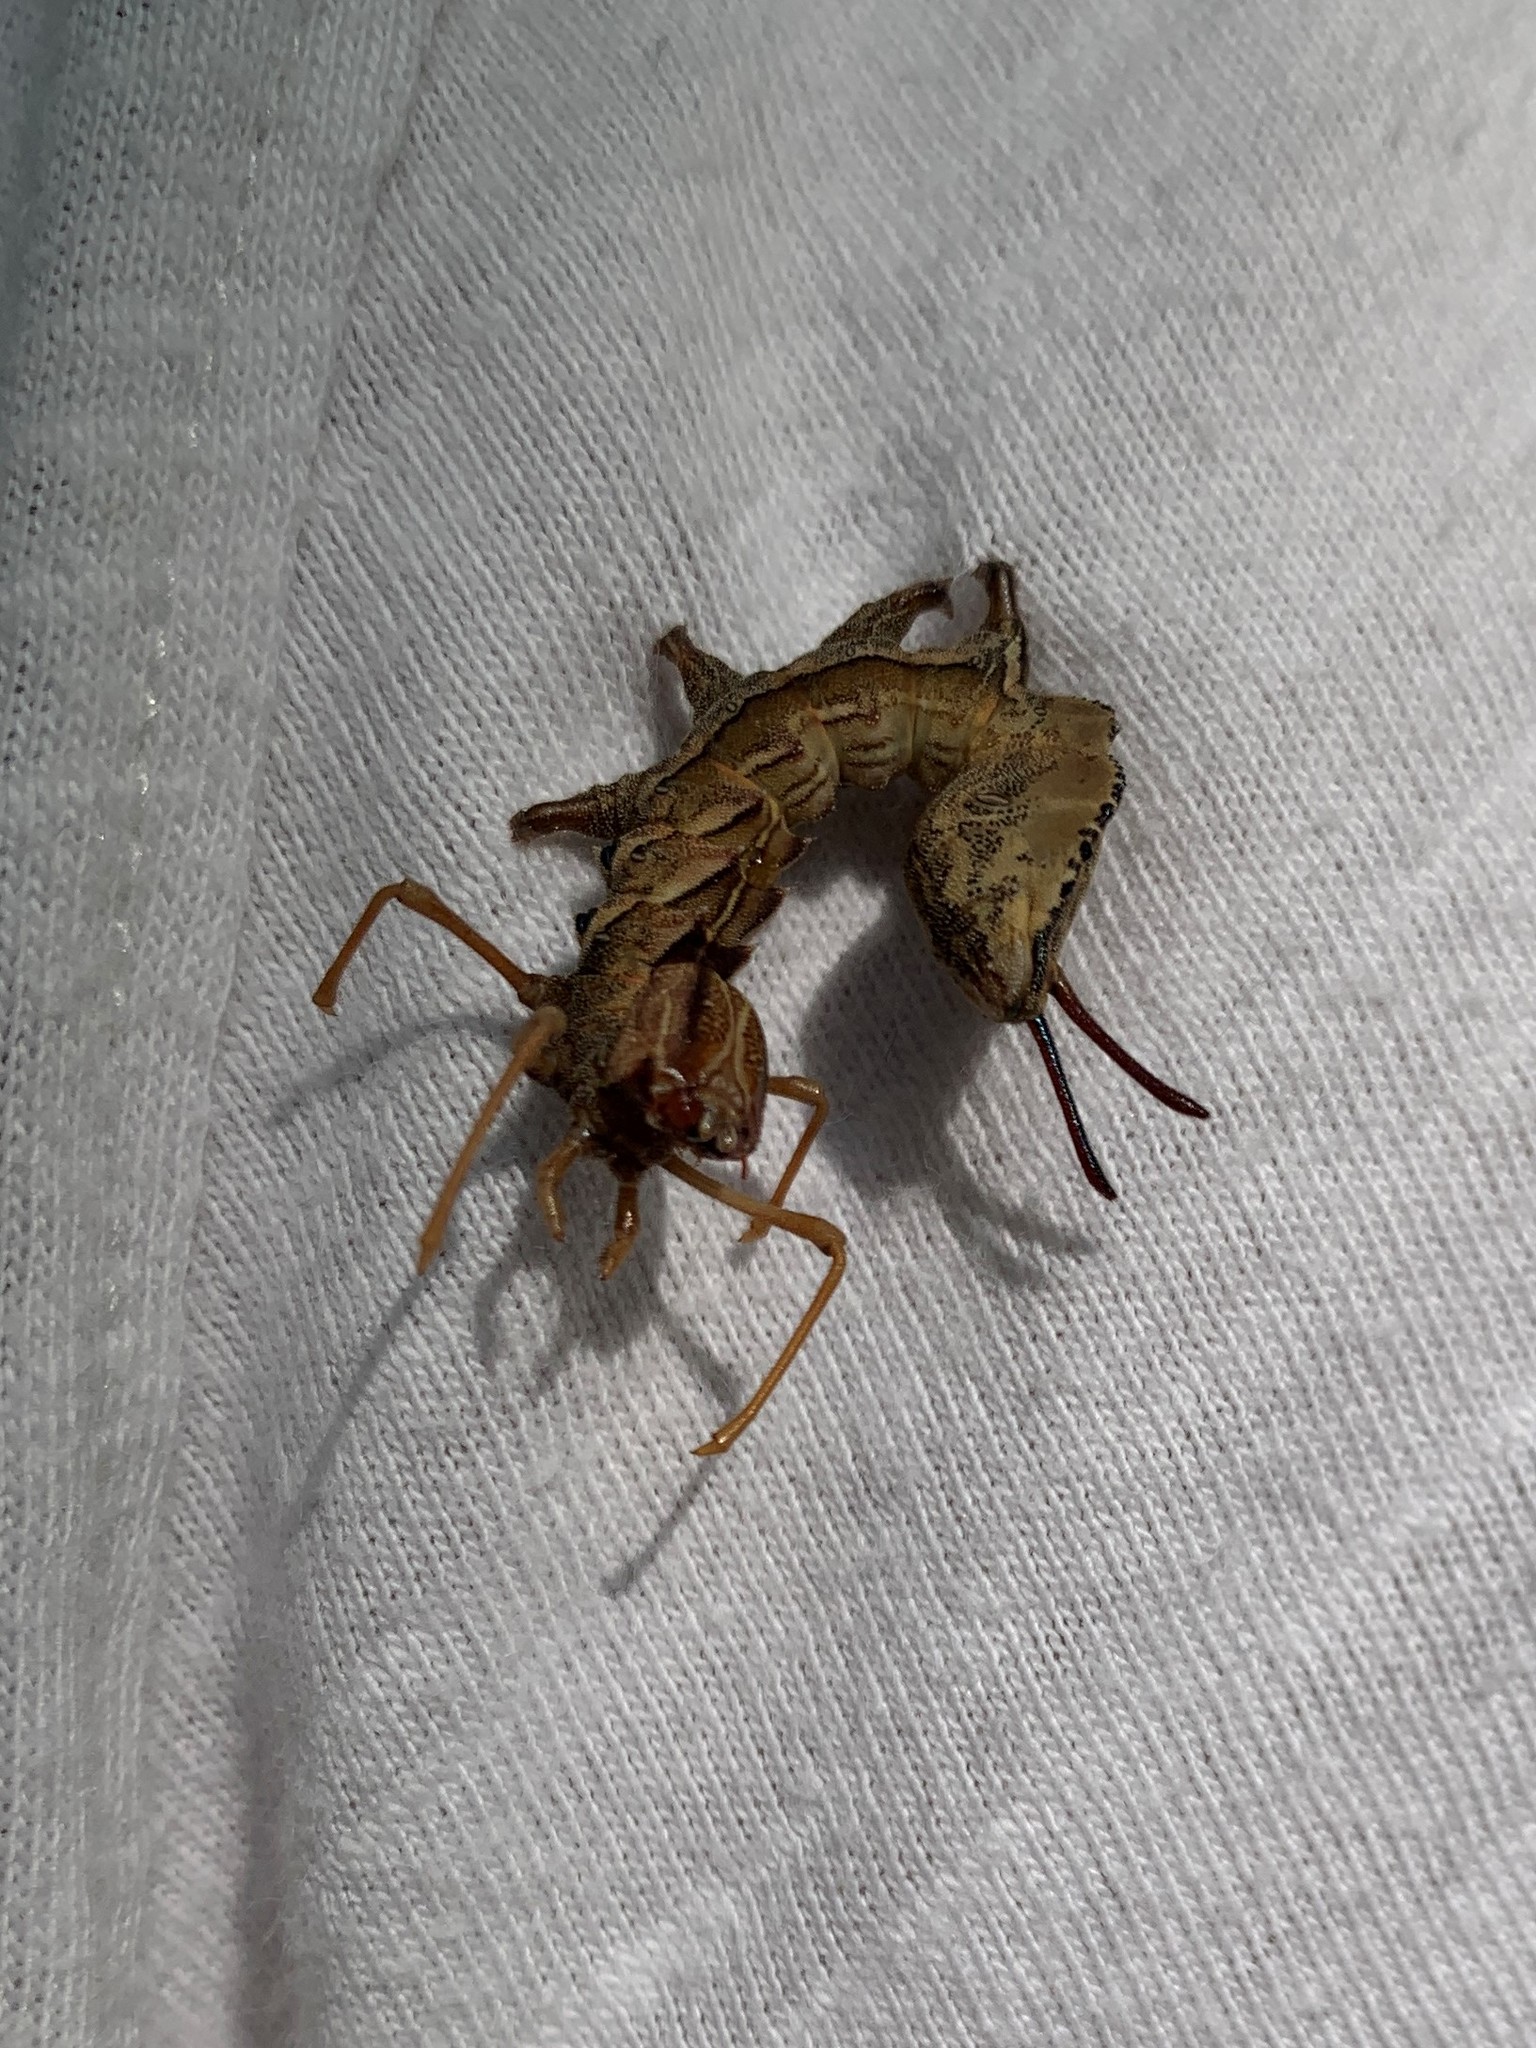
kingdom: Animalia
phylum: Arthropoda
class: Insecta
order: Lepidoptera
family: Notodontidae
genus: Stauropus
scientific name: Stauropus fagi
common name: Lobster moth
